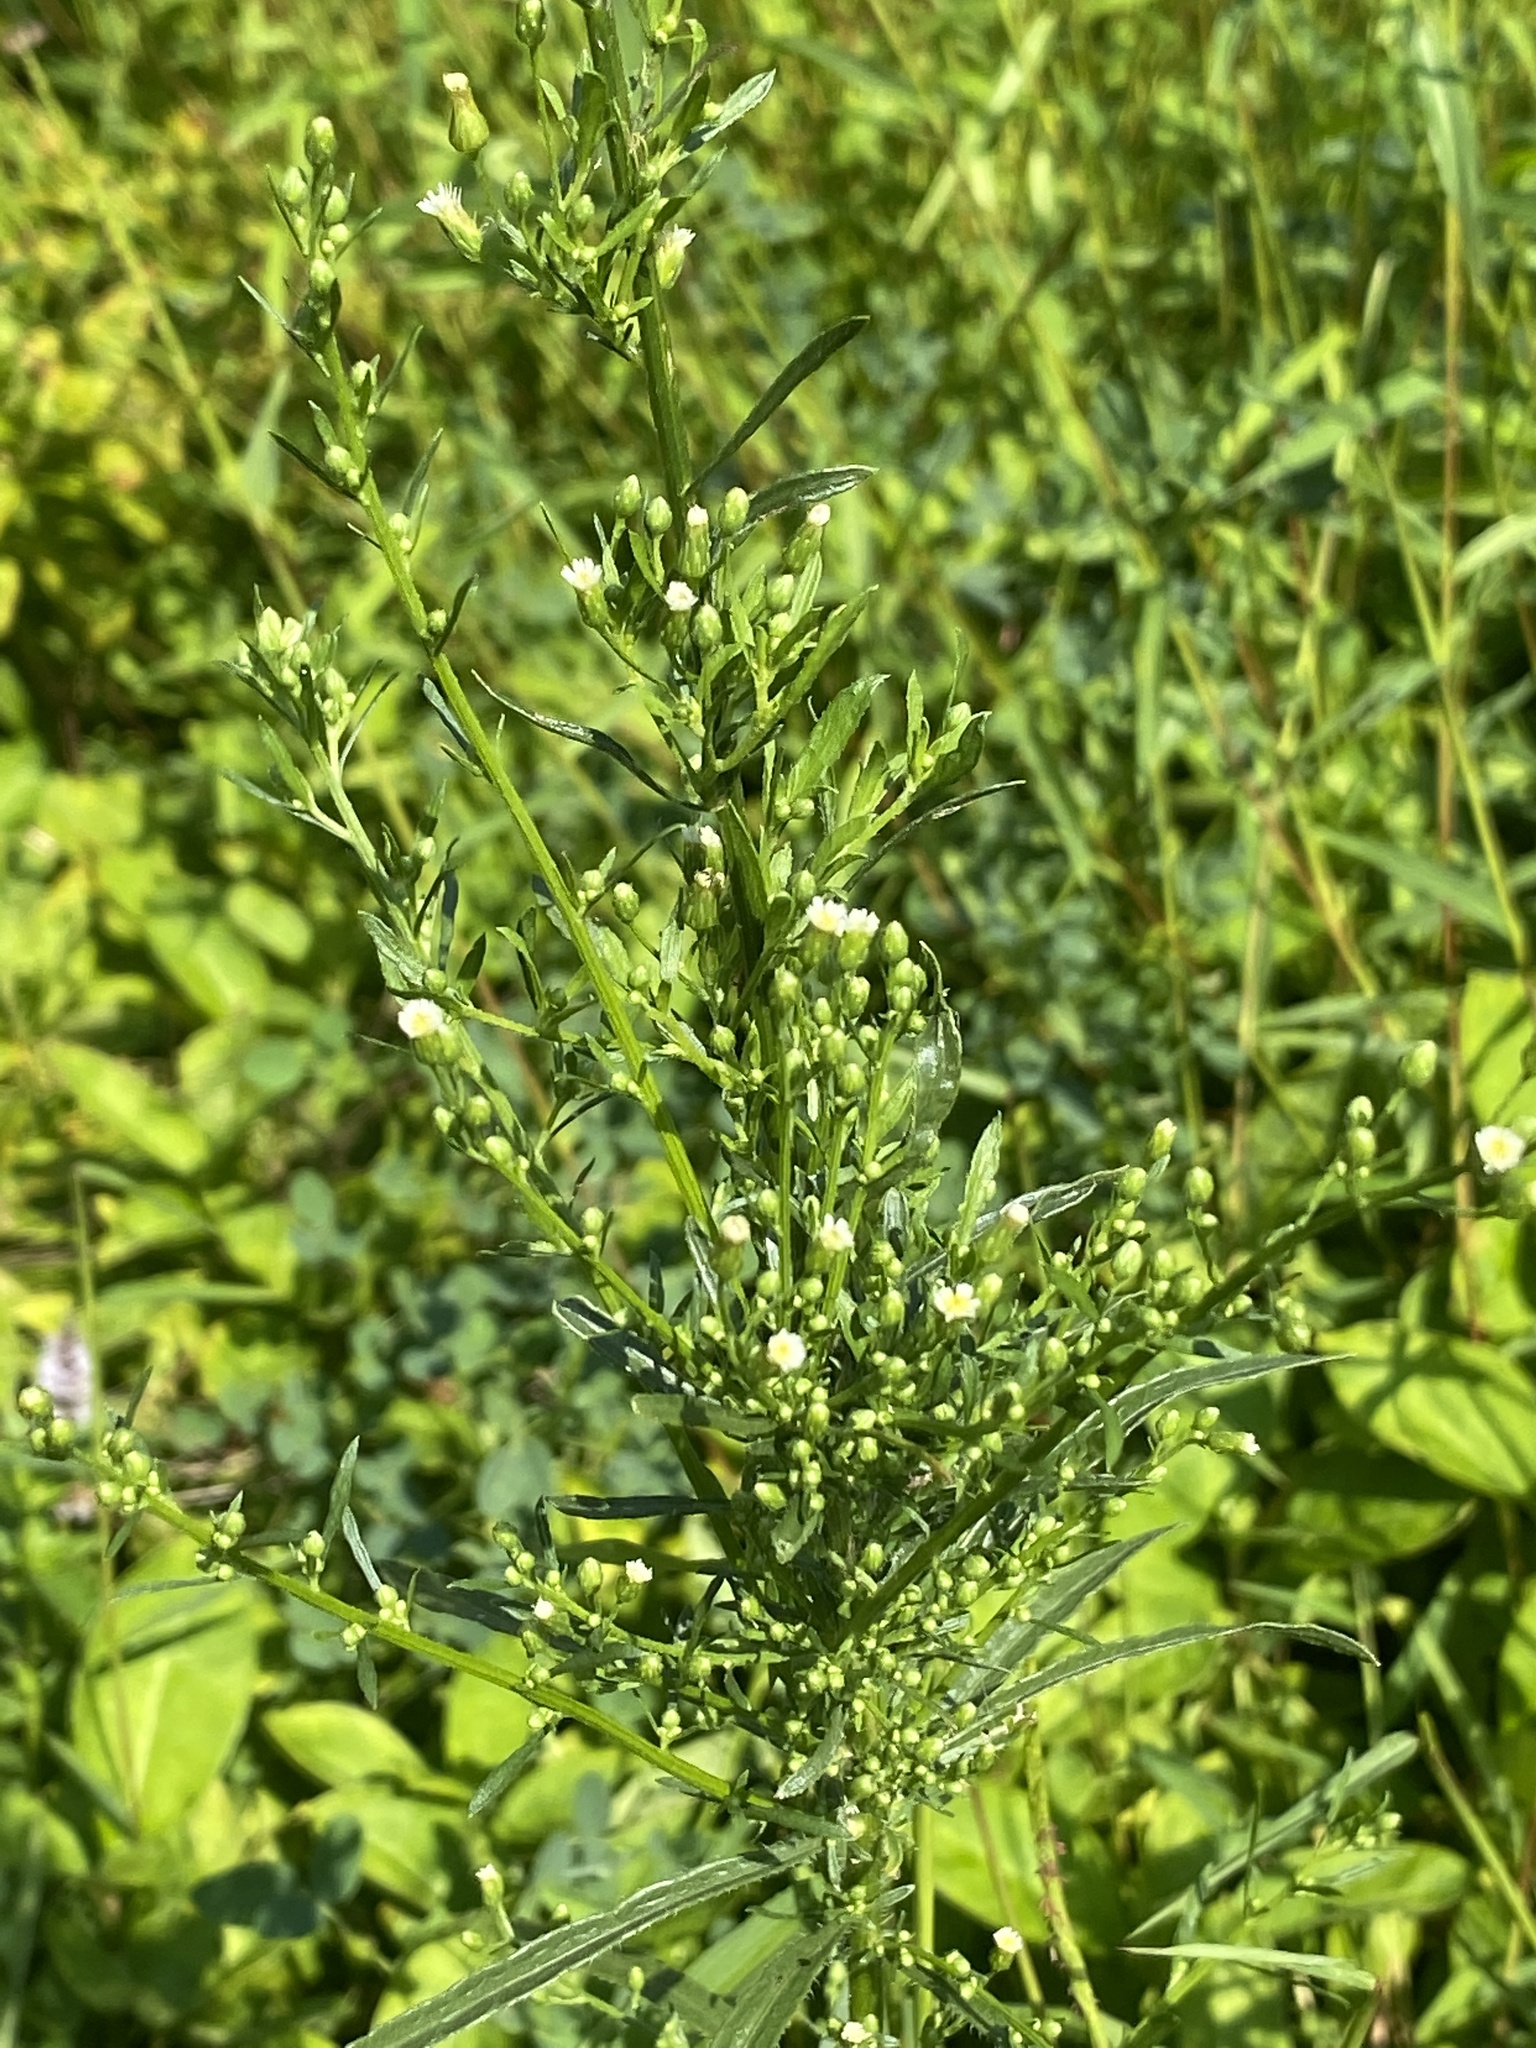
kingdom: Plantae
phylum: Tracheophyta
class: Magnoliopsida
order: Asterales
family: Asteraceae
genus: Erigeron
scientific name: Erigeron canadensis
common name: Canadian fleabane
